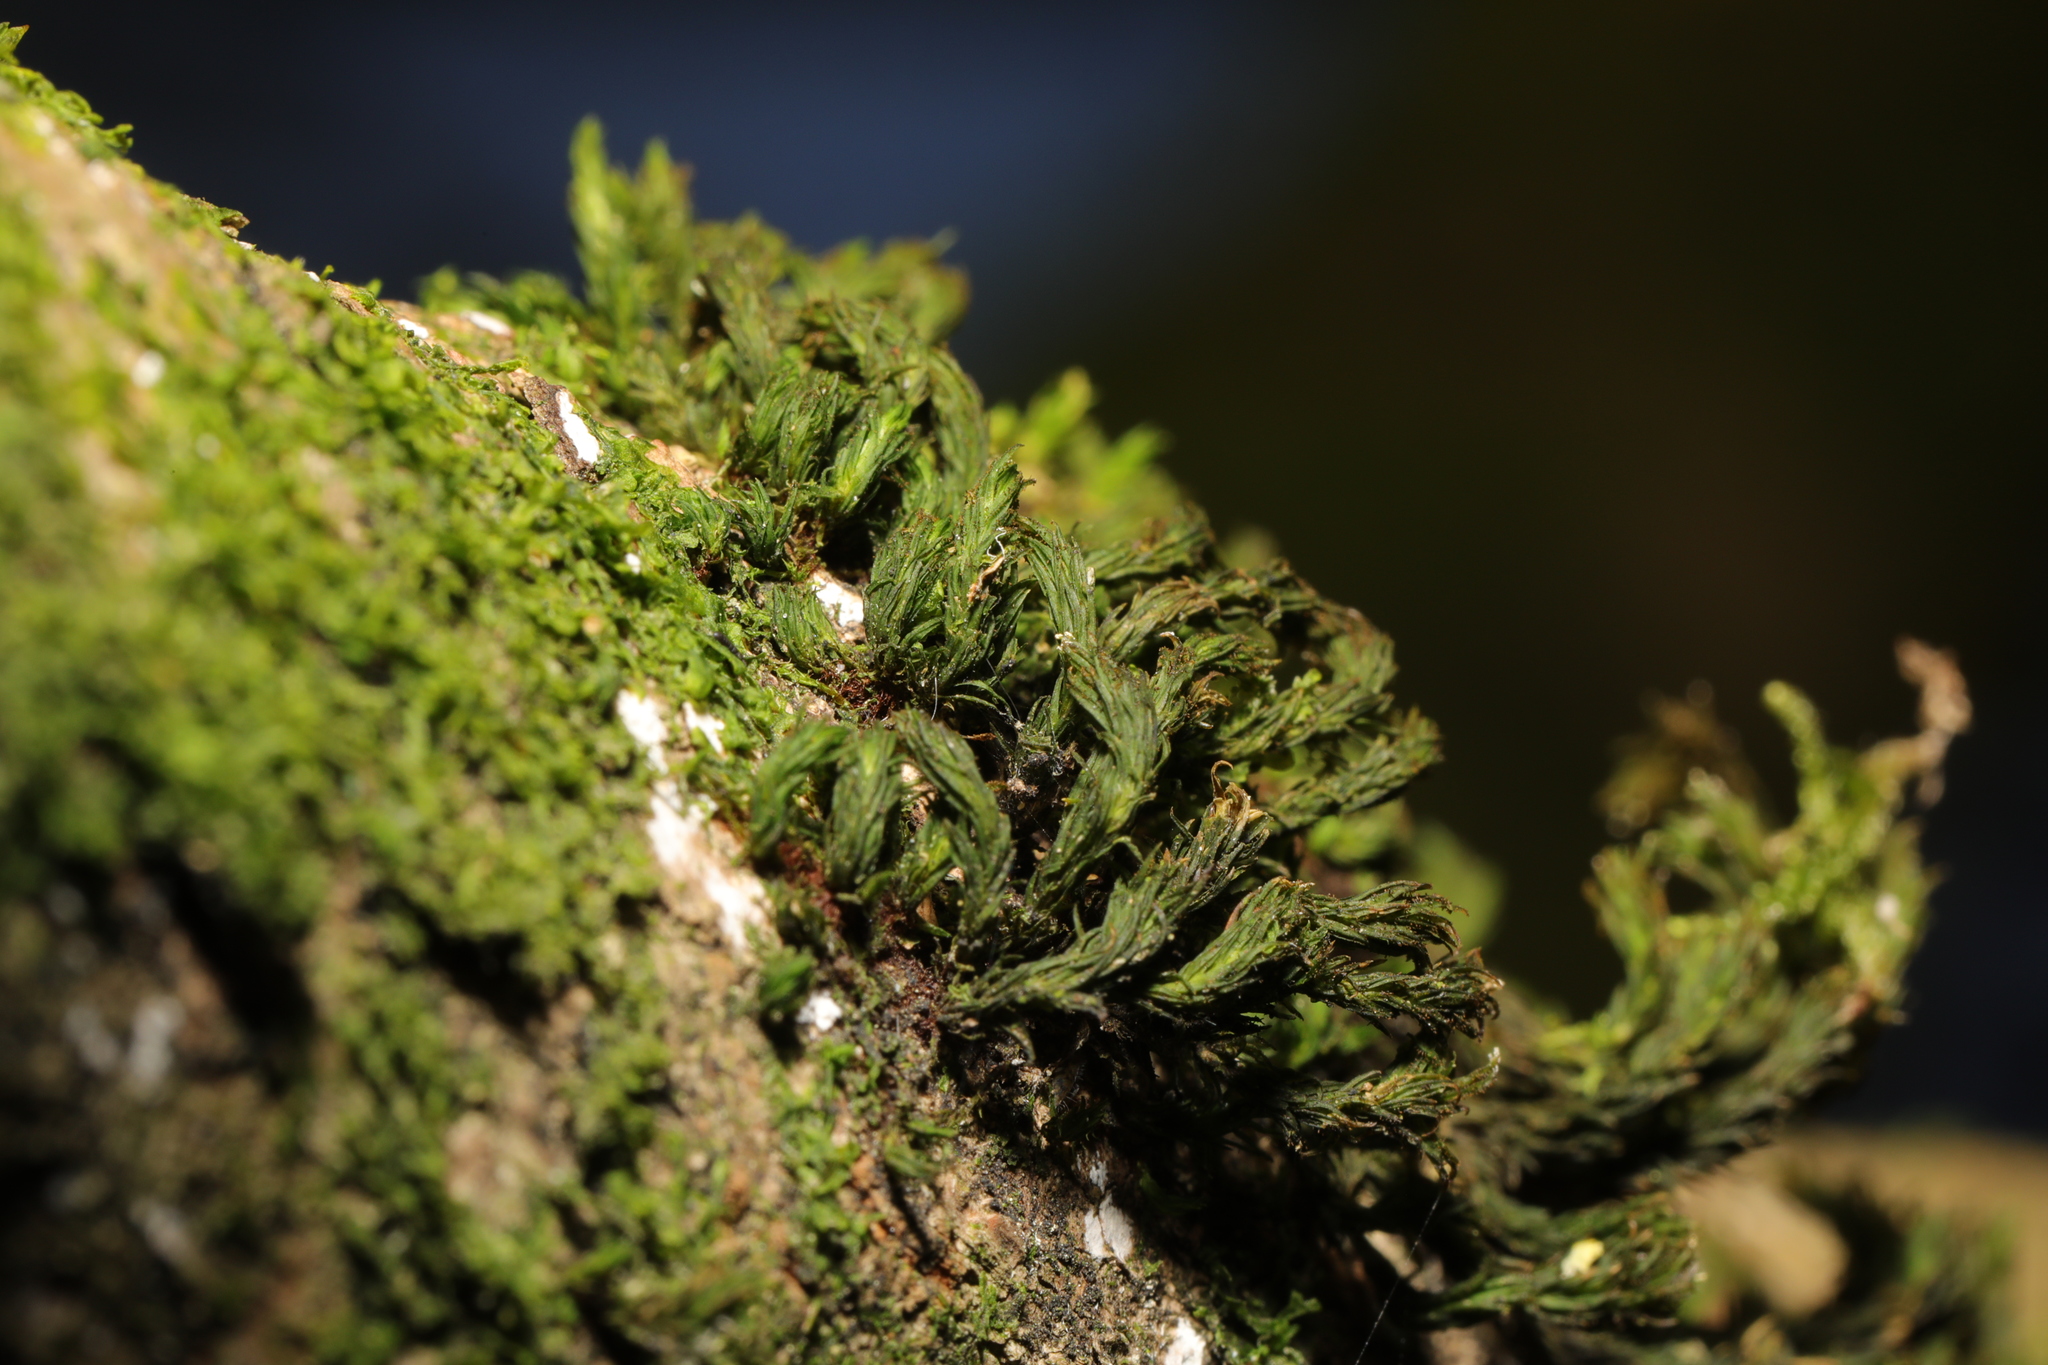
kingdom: Plantae
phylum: Bryophyta
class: Bryopsida
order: Orthotrichales
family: Orthotrichaceae
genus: Pulvigera
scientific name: Pulvigera lyellii
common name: Lyell's bristle-moss
